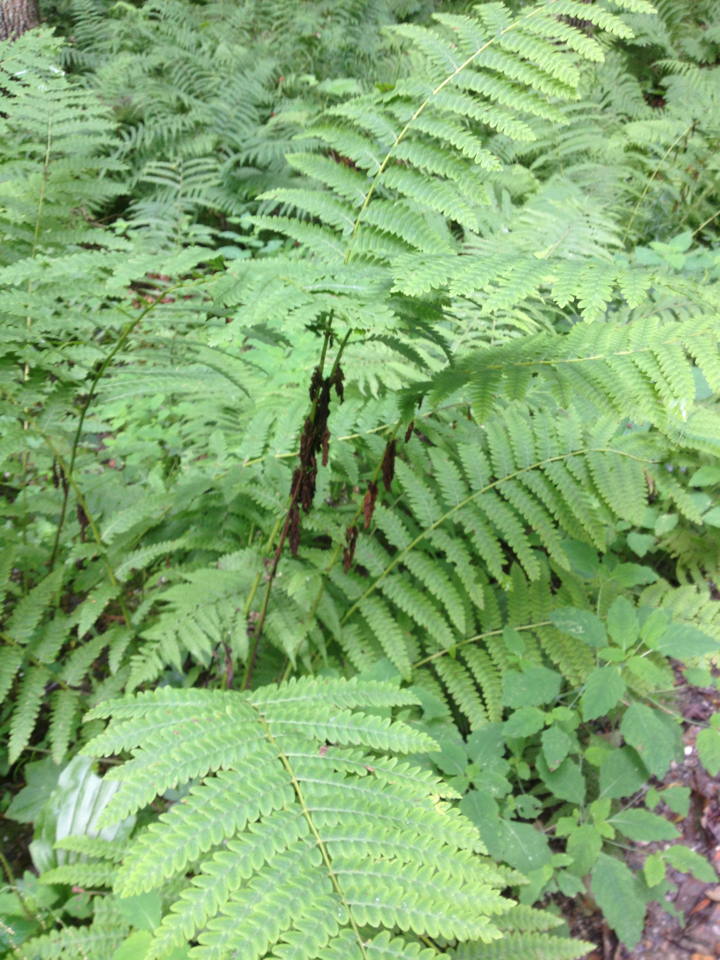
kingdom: Plantae
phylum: Tracheophyta
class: Polypodiopsida
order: Osmundales
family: Osmundaceae
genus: Claytosmunda
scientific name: Claytosmunda claytoniana
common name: Clayton's fern
